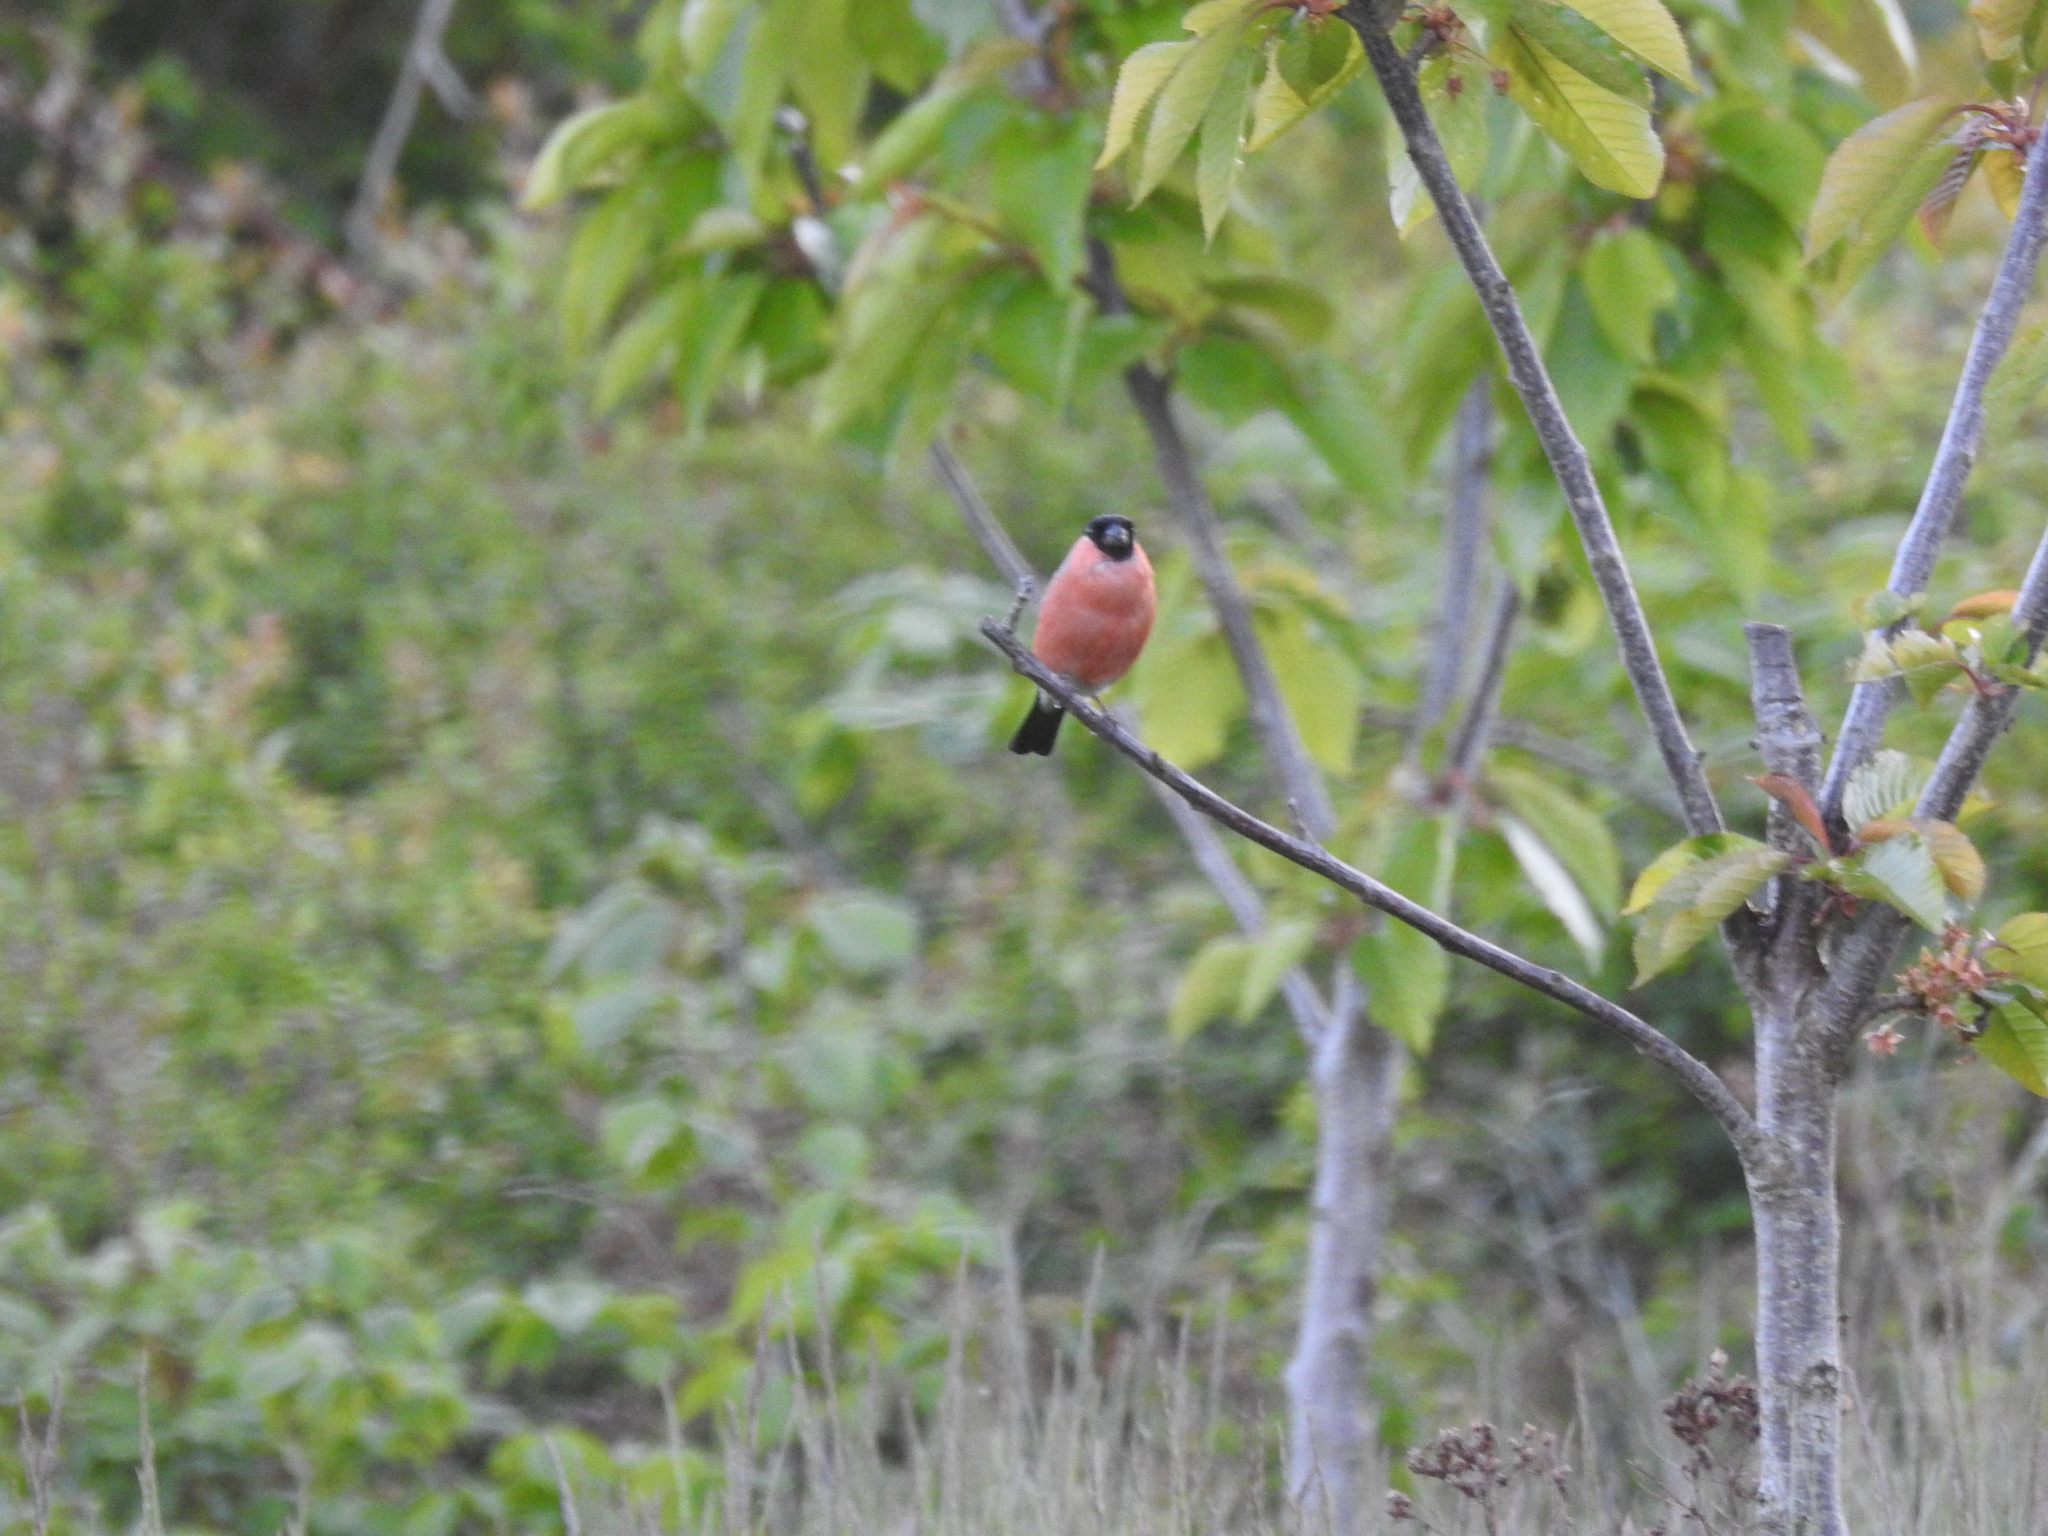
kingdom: Animalia
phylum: Chordata
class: Aves
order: Passeriformes
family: Fringillidae
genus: Pyrrhula
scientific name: Pyrrhula pyrrhula
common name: Eurasian bullfinch
